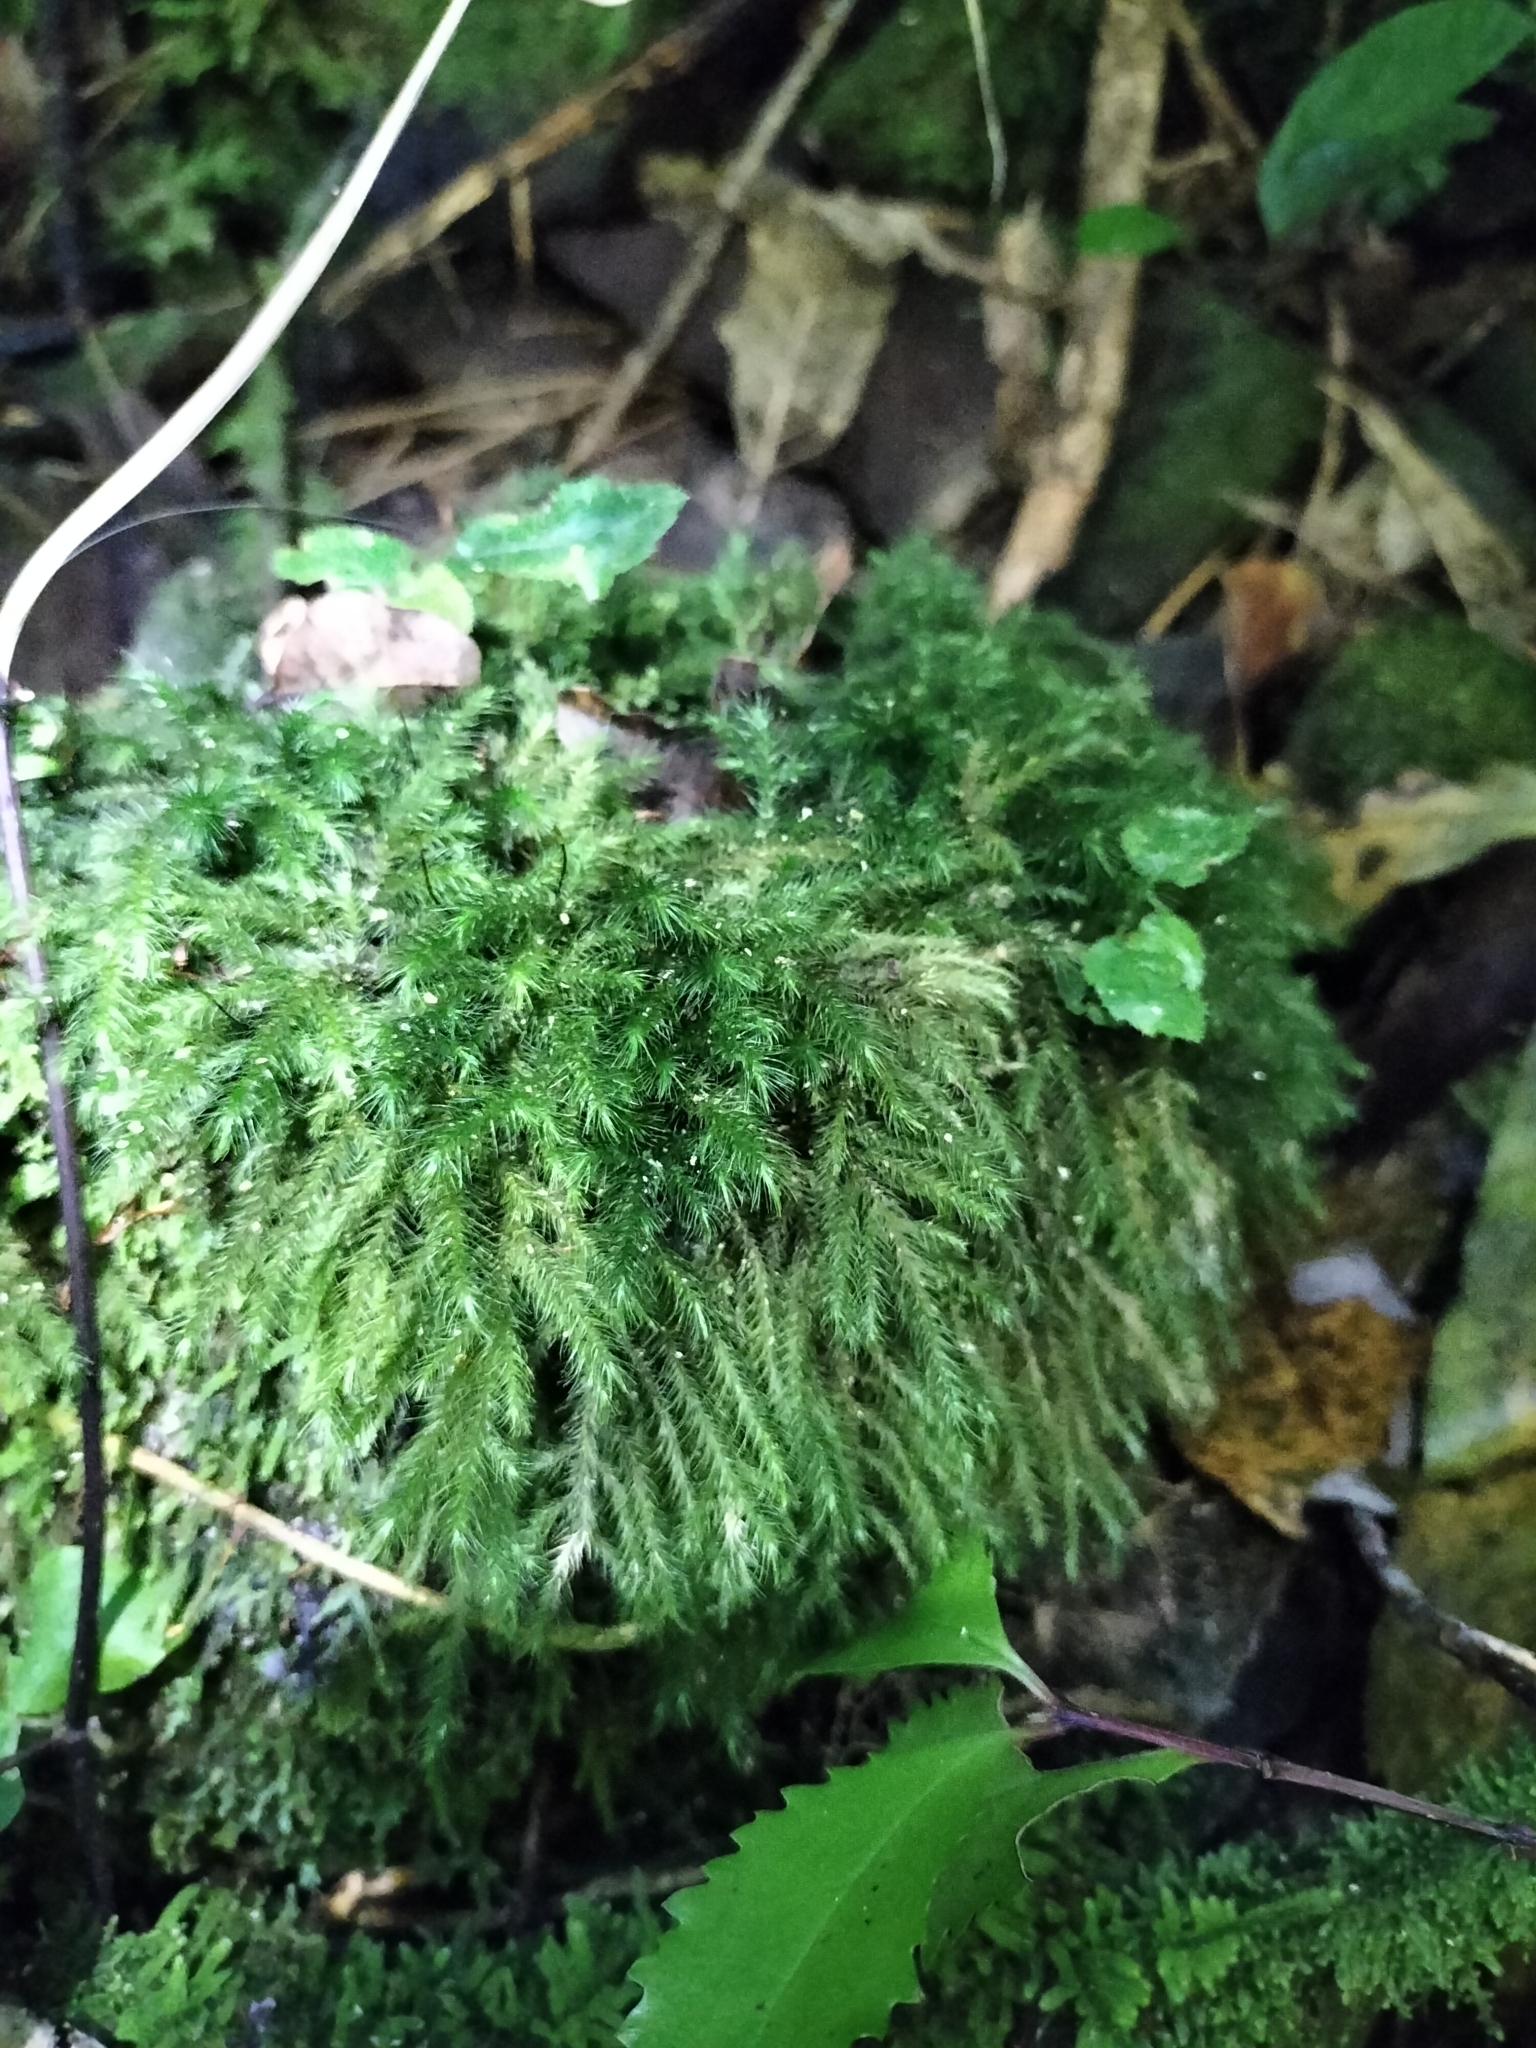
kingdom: Plantae
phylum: Bryophyta
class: Bryopsida
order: Hypnales
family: Neckeraceae
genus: Echinodiopsis
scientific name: Echinodiopsis hispida
